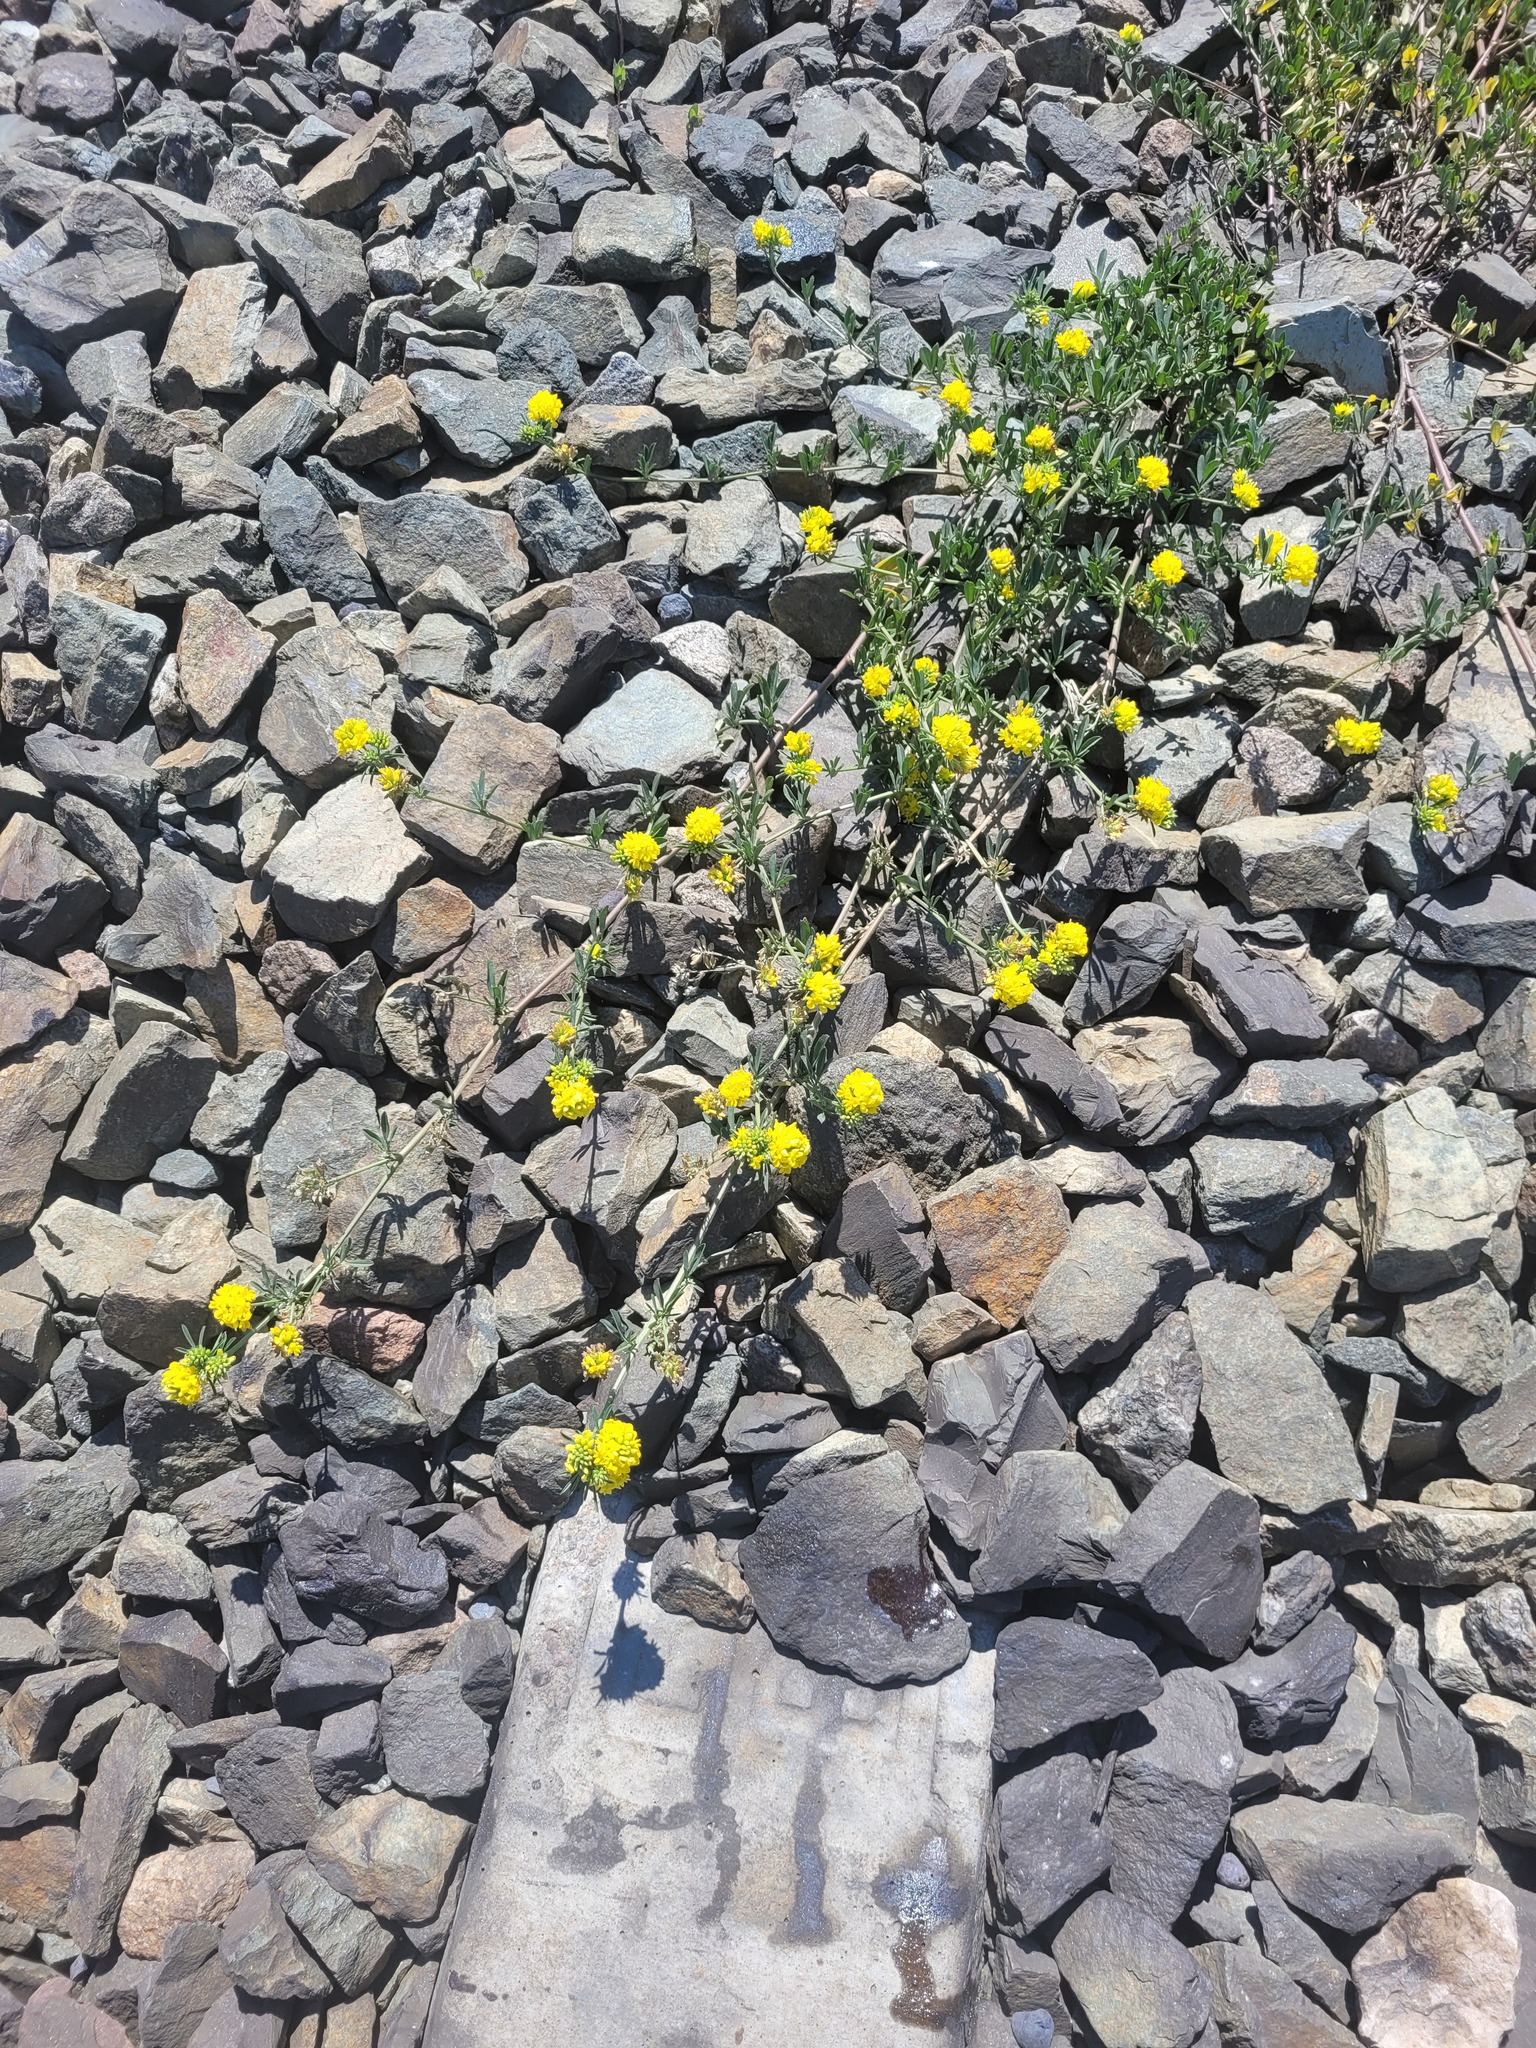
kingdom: Plantae
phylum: Tracheophyta
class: Magnoliopsida
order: Fabales
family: Fabaceae
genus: Medicago
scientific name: Medicago falcata
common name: Sickle medick
